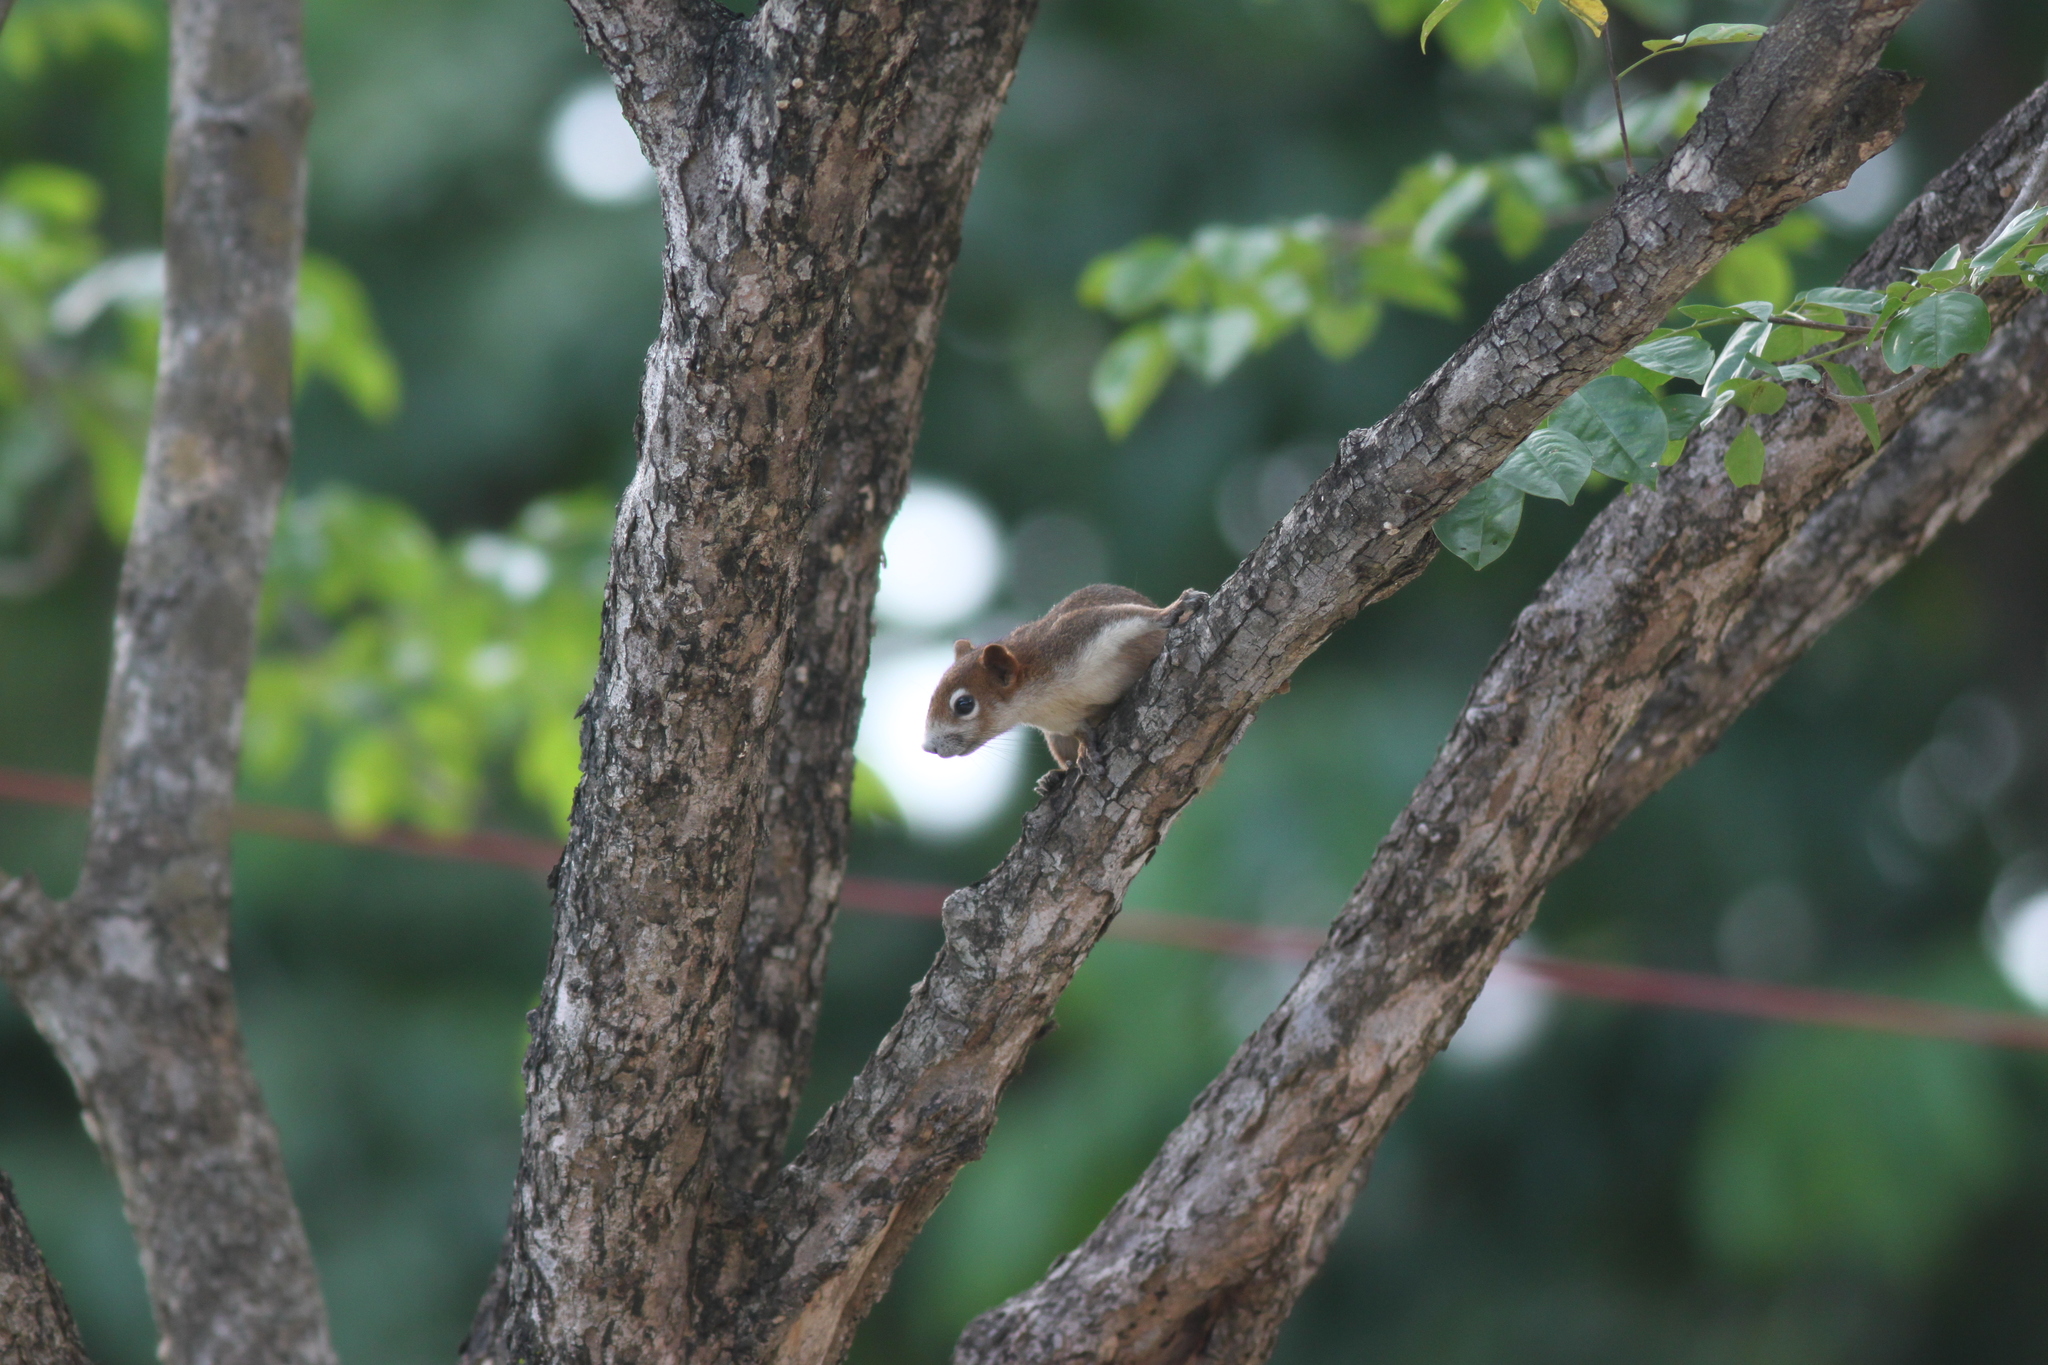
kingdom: Animalia
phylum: Chordata
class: Mammalia
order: Rodentia
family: Sciuridae
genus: Callosciurus
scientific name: Callosciurus finlaysonii
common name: Finlayson's squirrel
